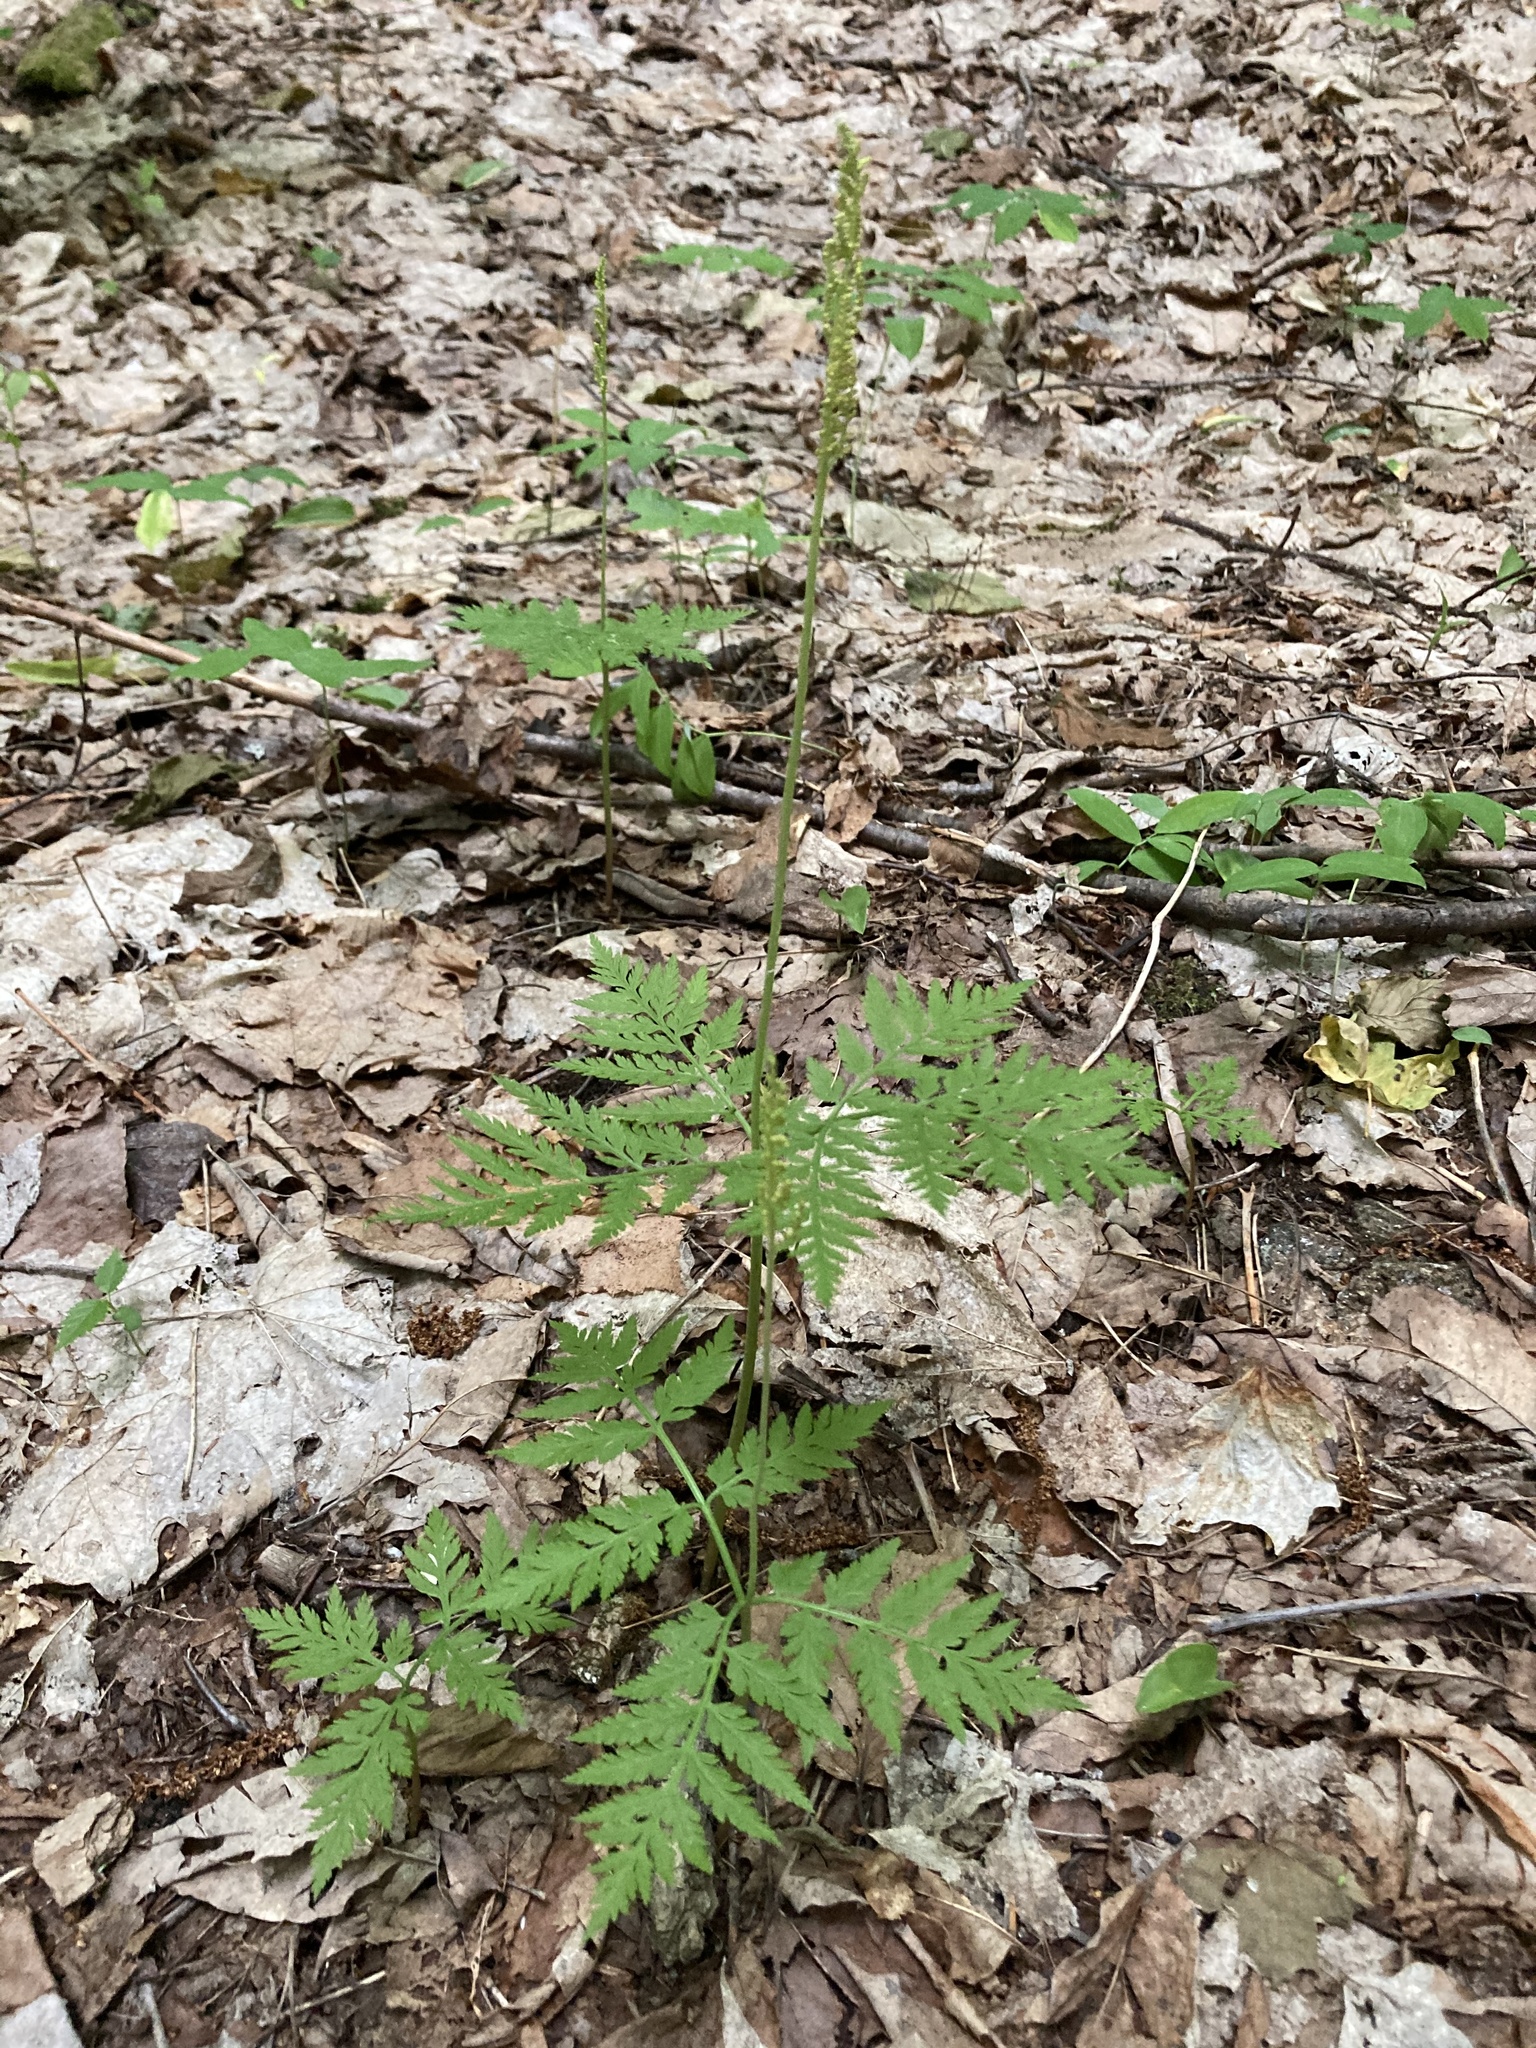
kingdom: Plantae
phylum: Tracheophyta
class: Polypodiopsida
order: Ophioglossales
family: Ophioglossaceae
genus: Botrypus
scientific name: Botrypus virginianus
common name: Common grapefern
